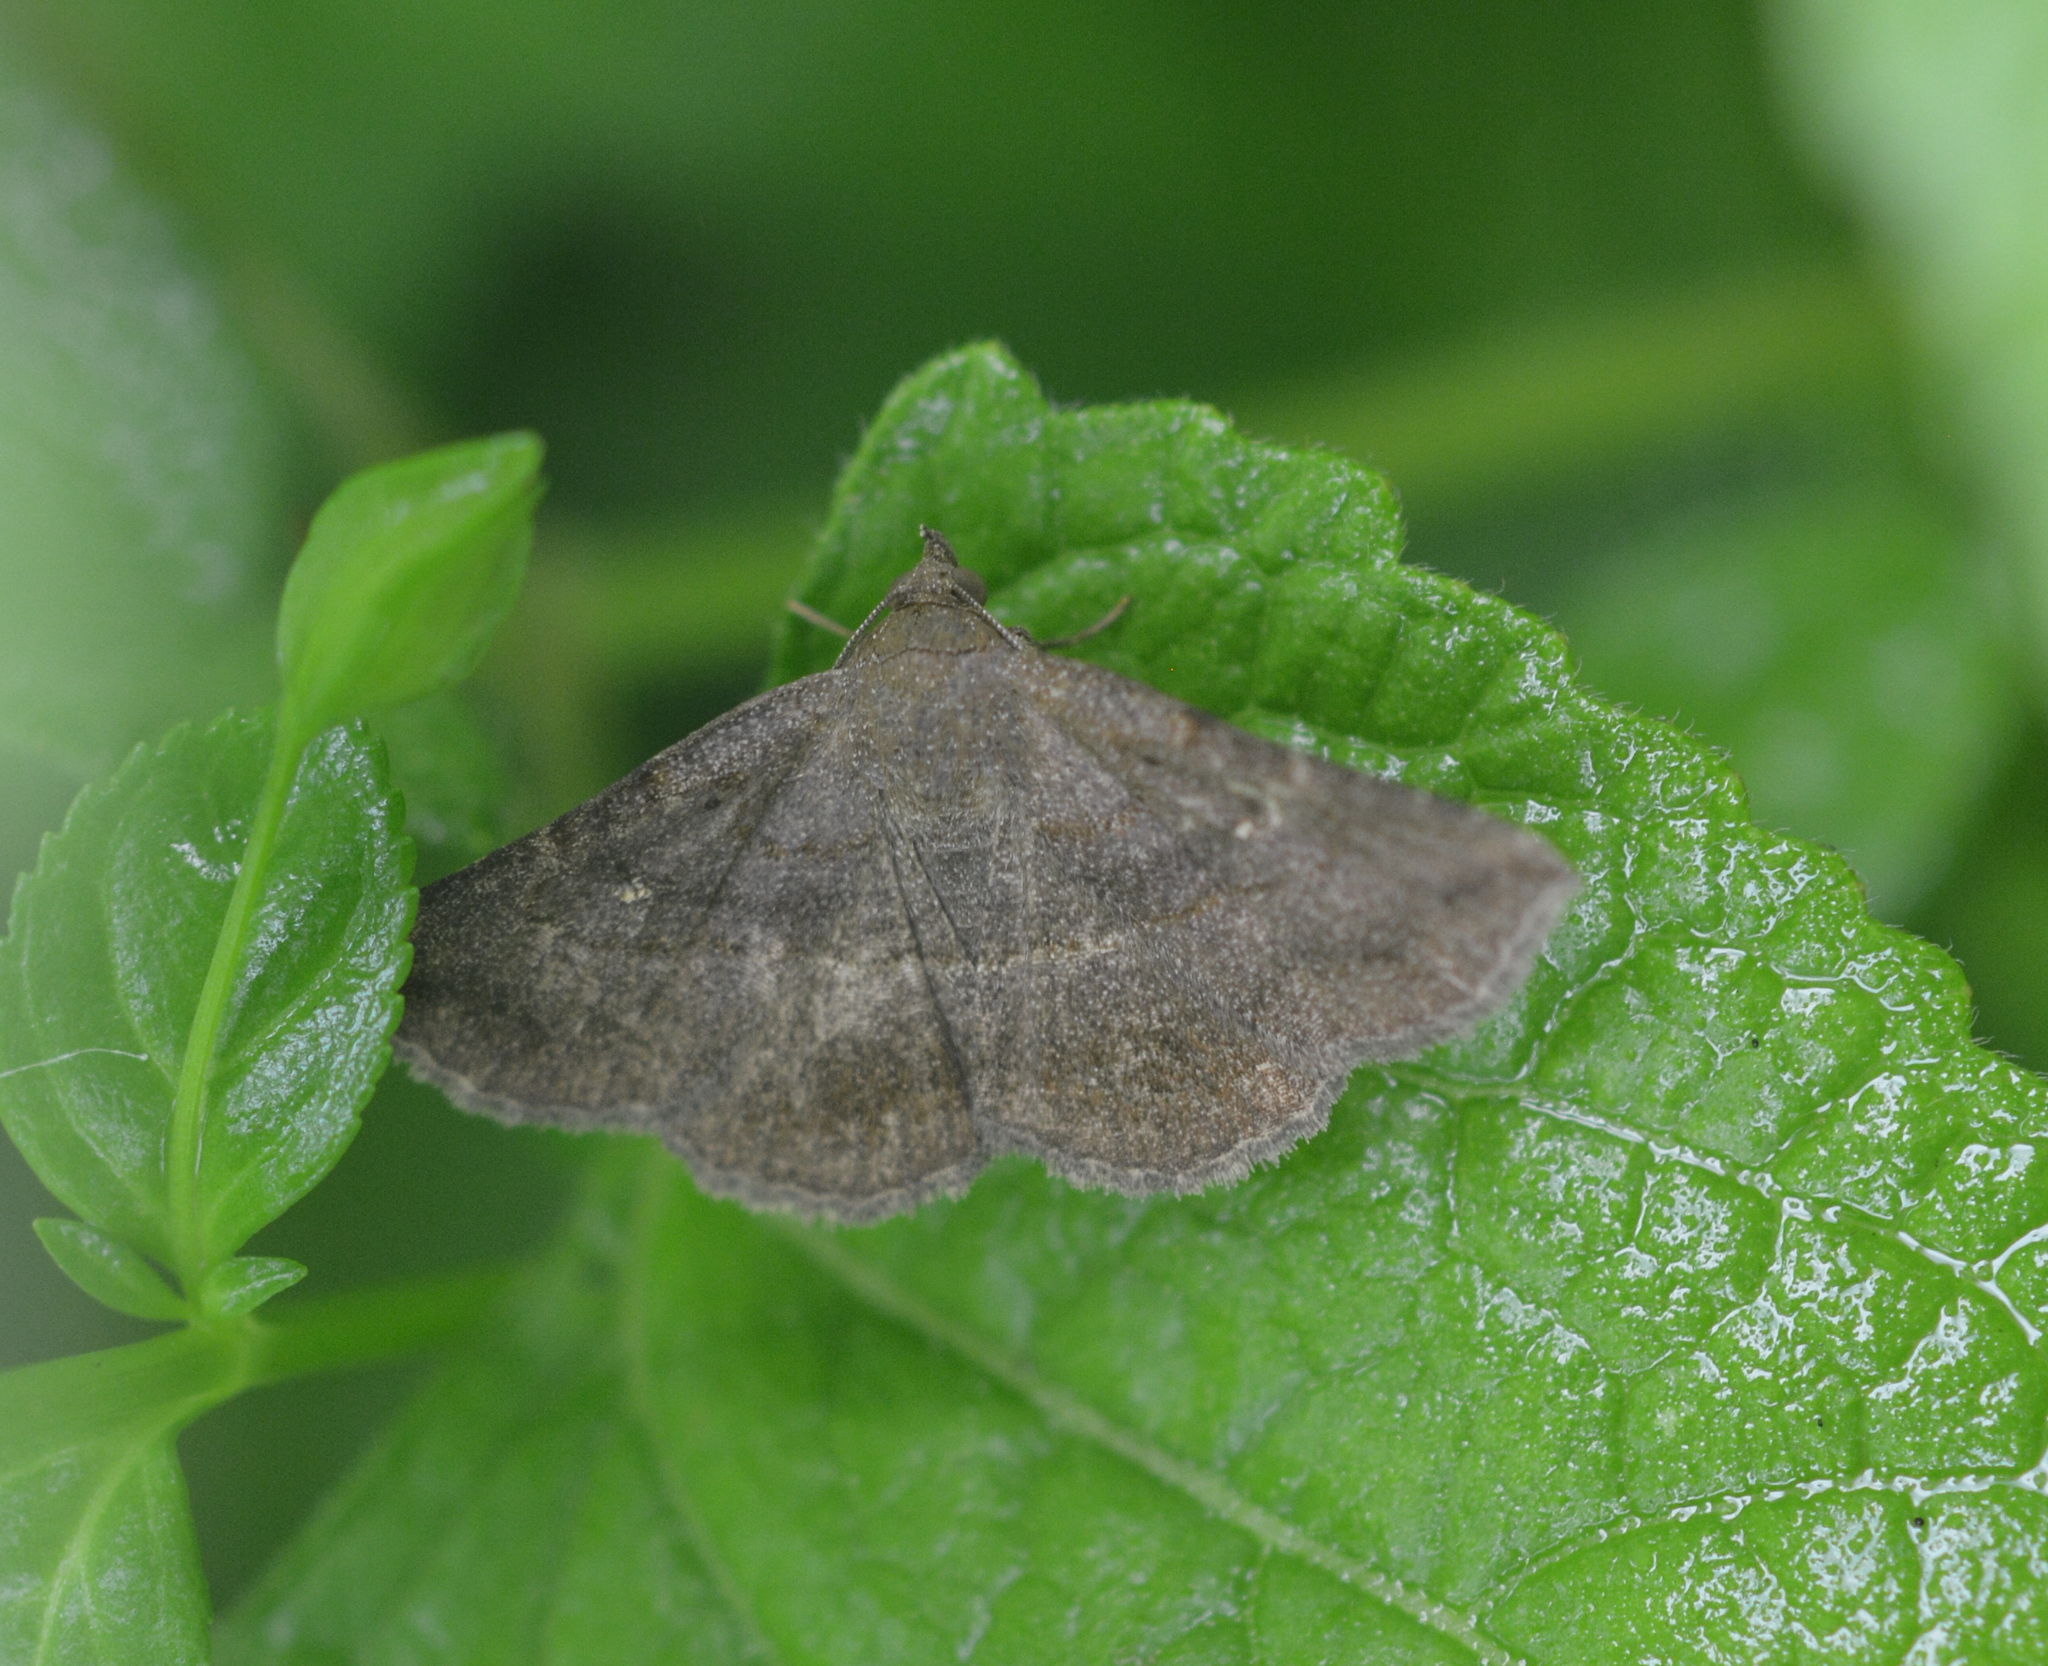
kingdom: Animalia
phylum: Arthropoda
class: Insecta
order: Lepidoptera
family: Erebidae
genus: Lesmone
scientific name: Lesmone detrahens
